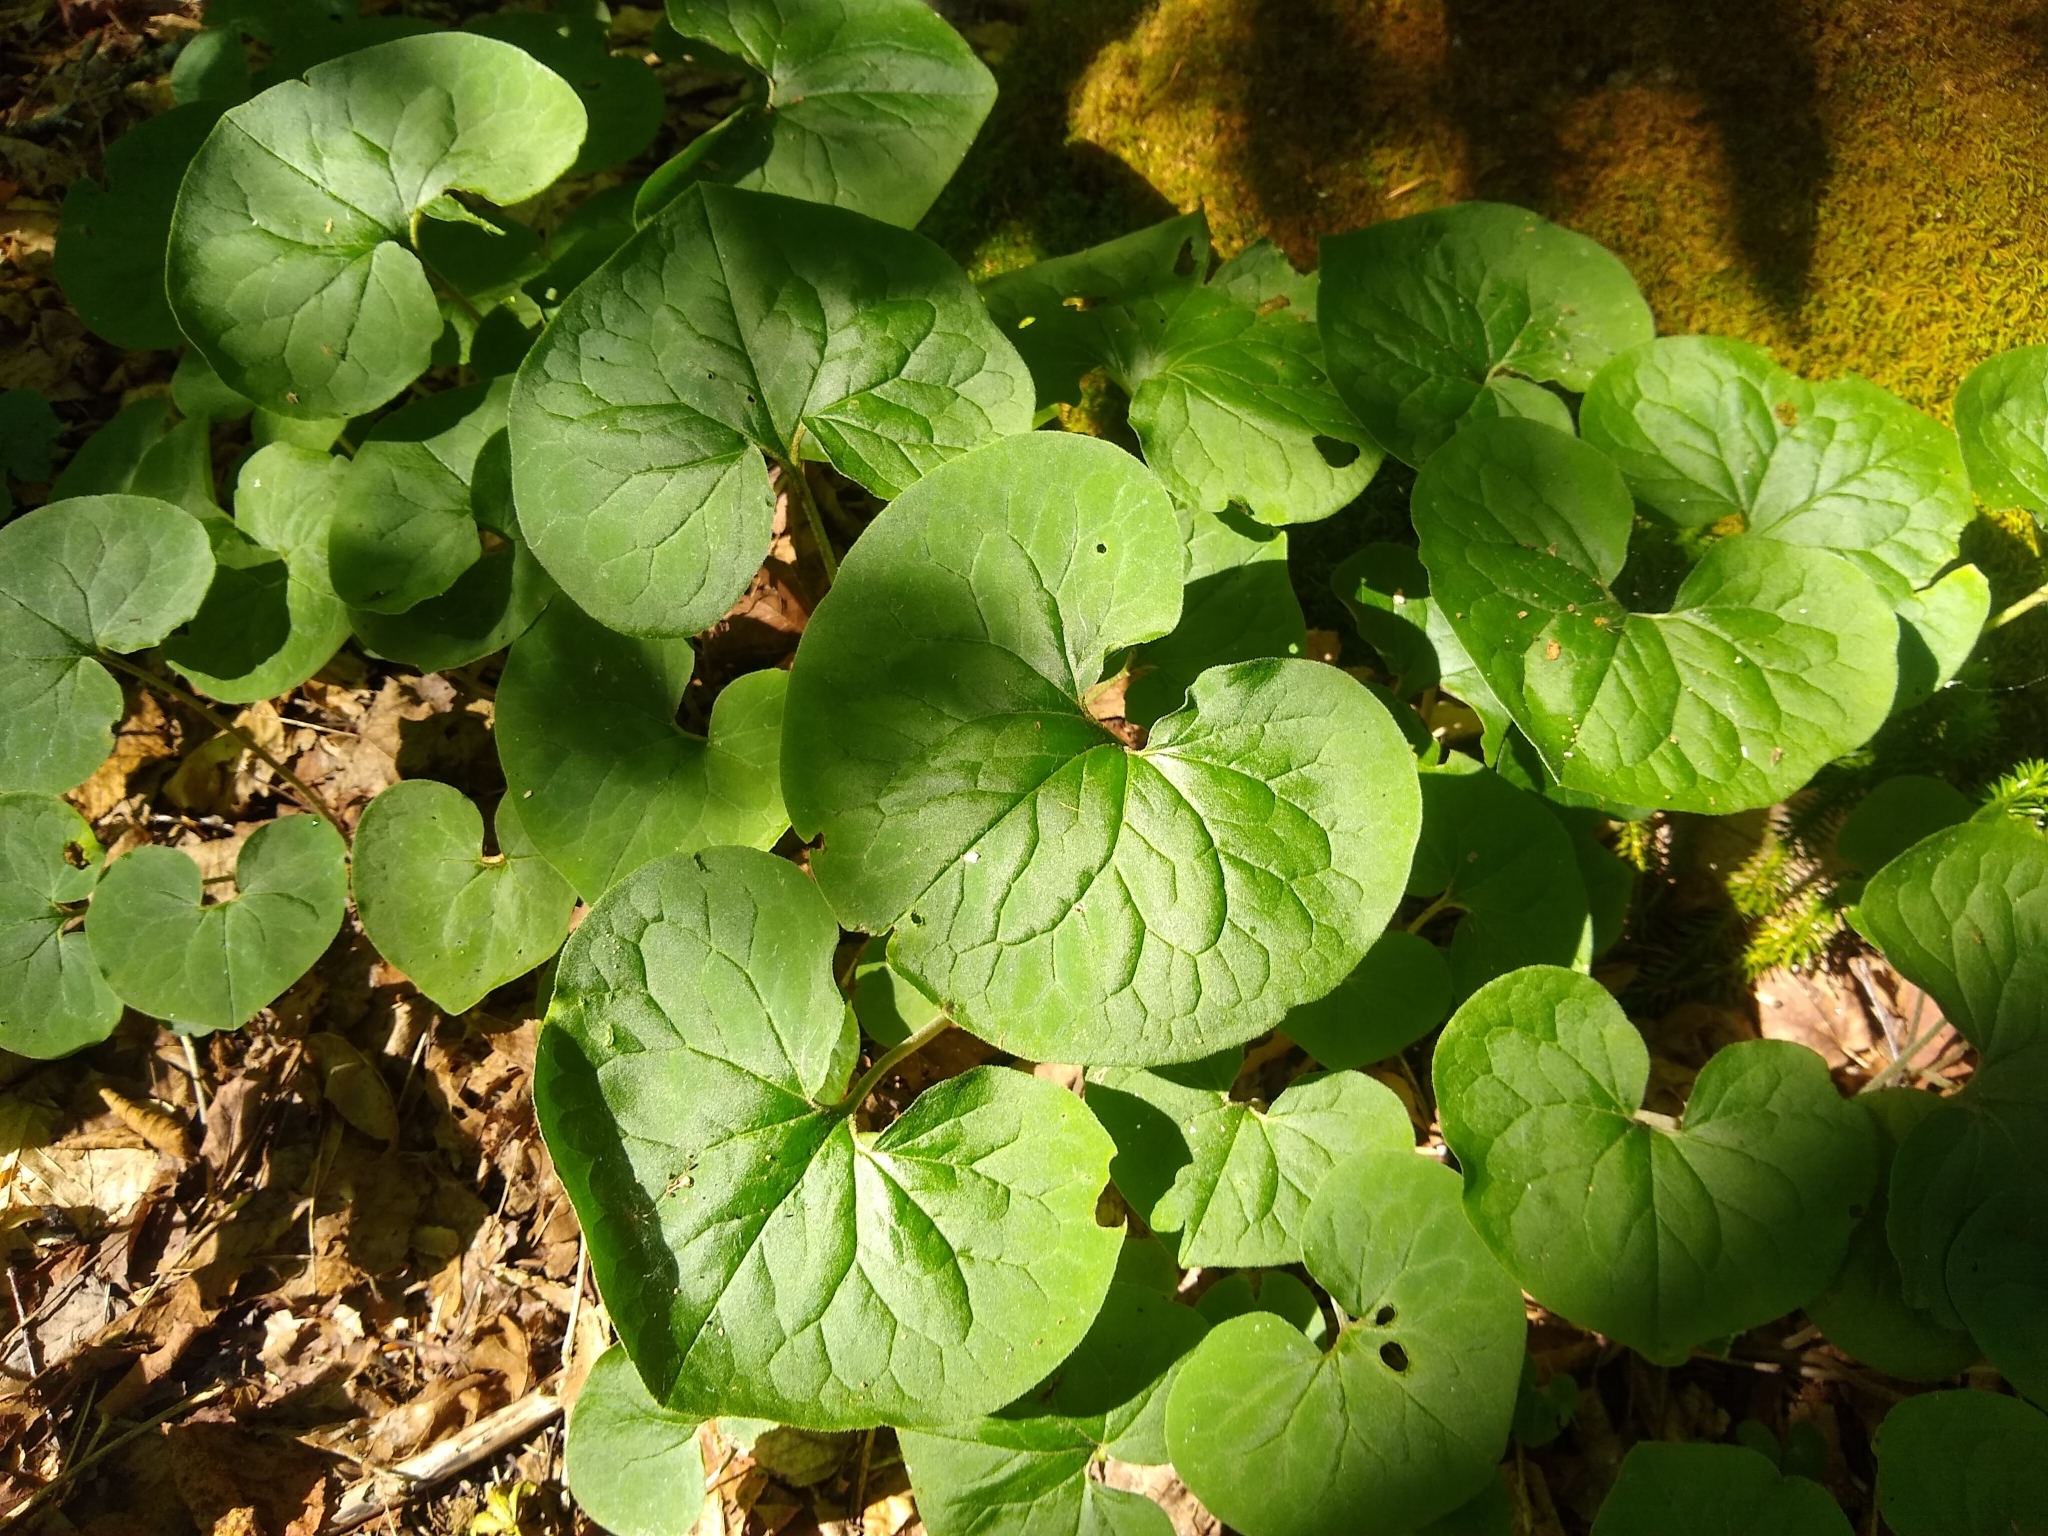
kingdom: Plantae
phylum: Tracheophyta
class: Magnoliopsida
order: Piperales
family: Aristolochiaceae
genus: Asarum
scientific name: Asarum canadense
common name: Wild ginger
